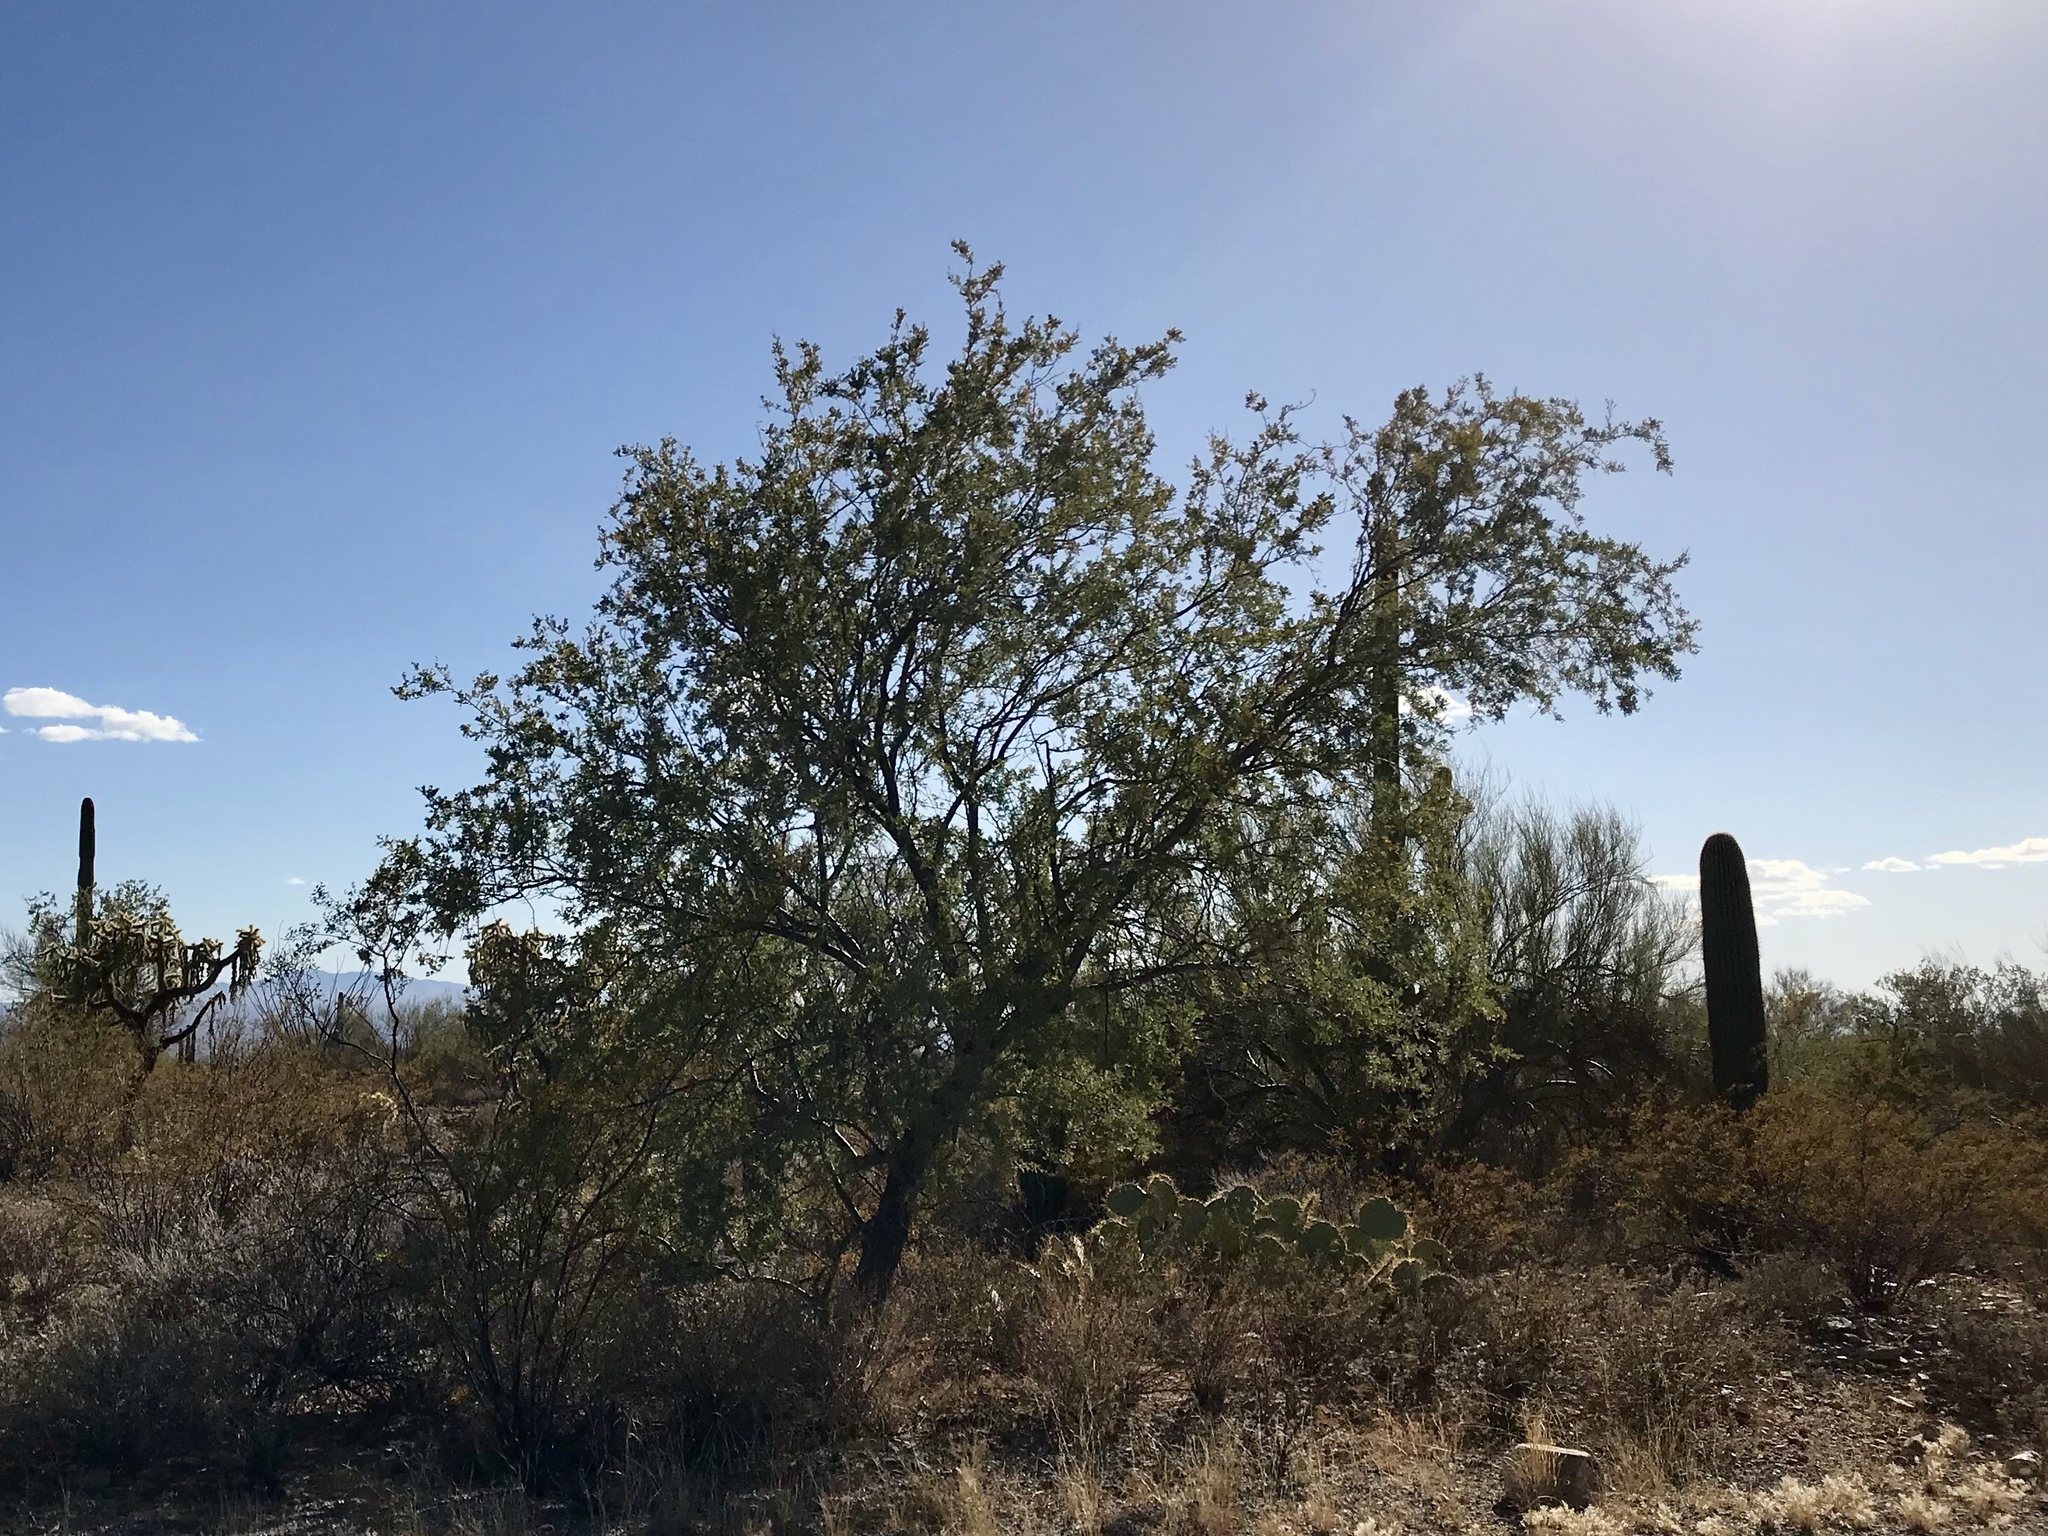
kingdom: Plantae
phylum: Tracheophyta
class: Magnoliopsida
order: Fabales
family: Fabaceae
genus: Olneya
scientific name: Olneya tesota
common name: Desert ironwood
